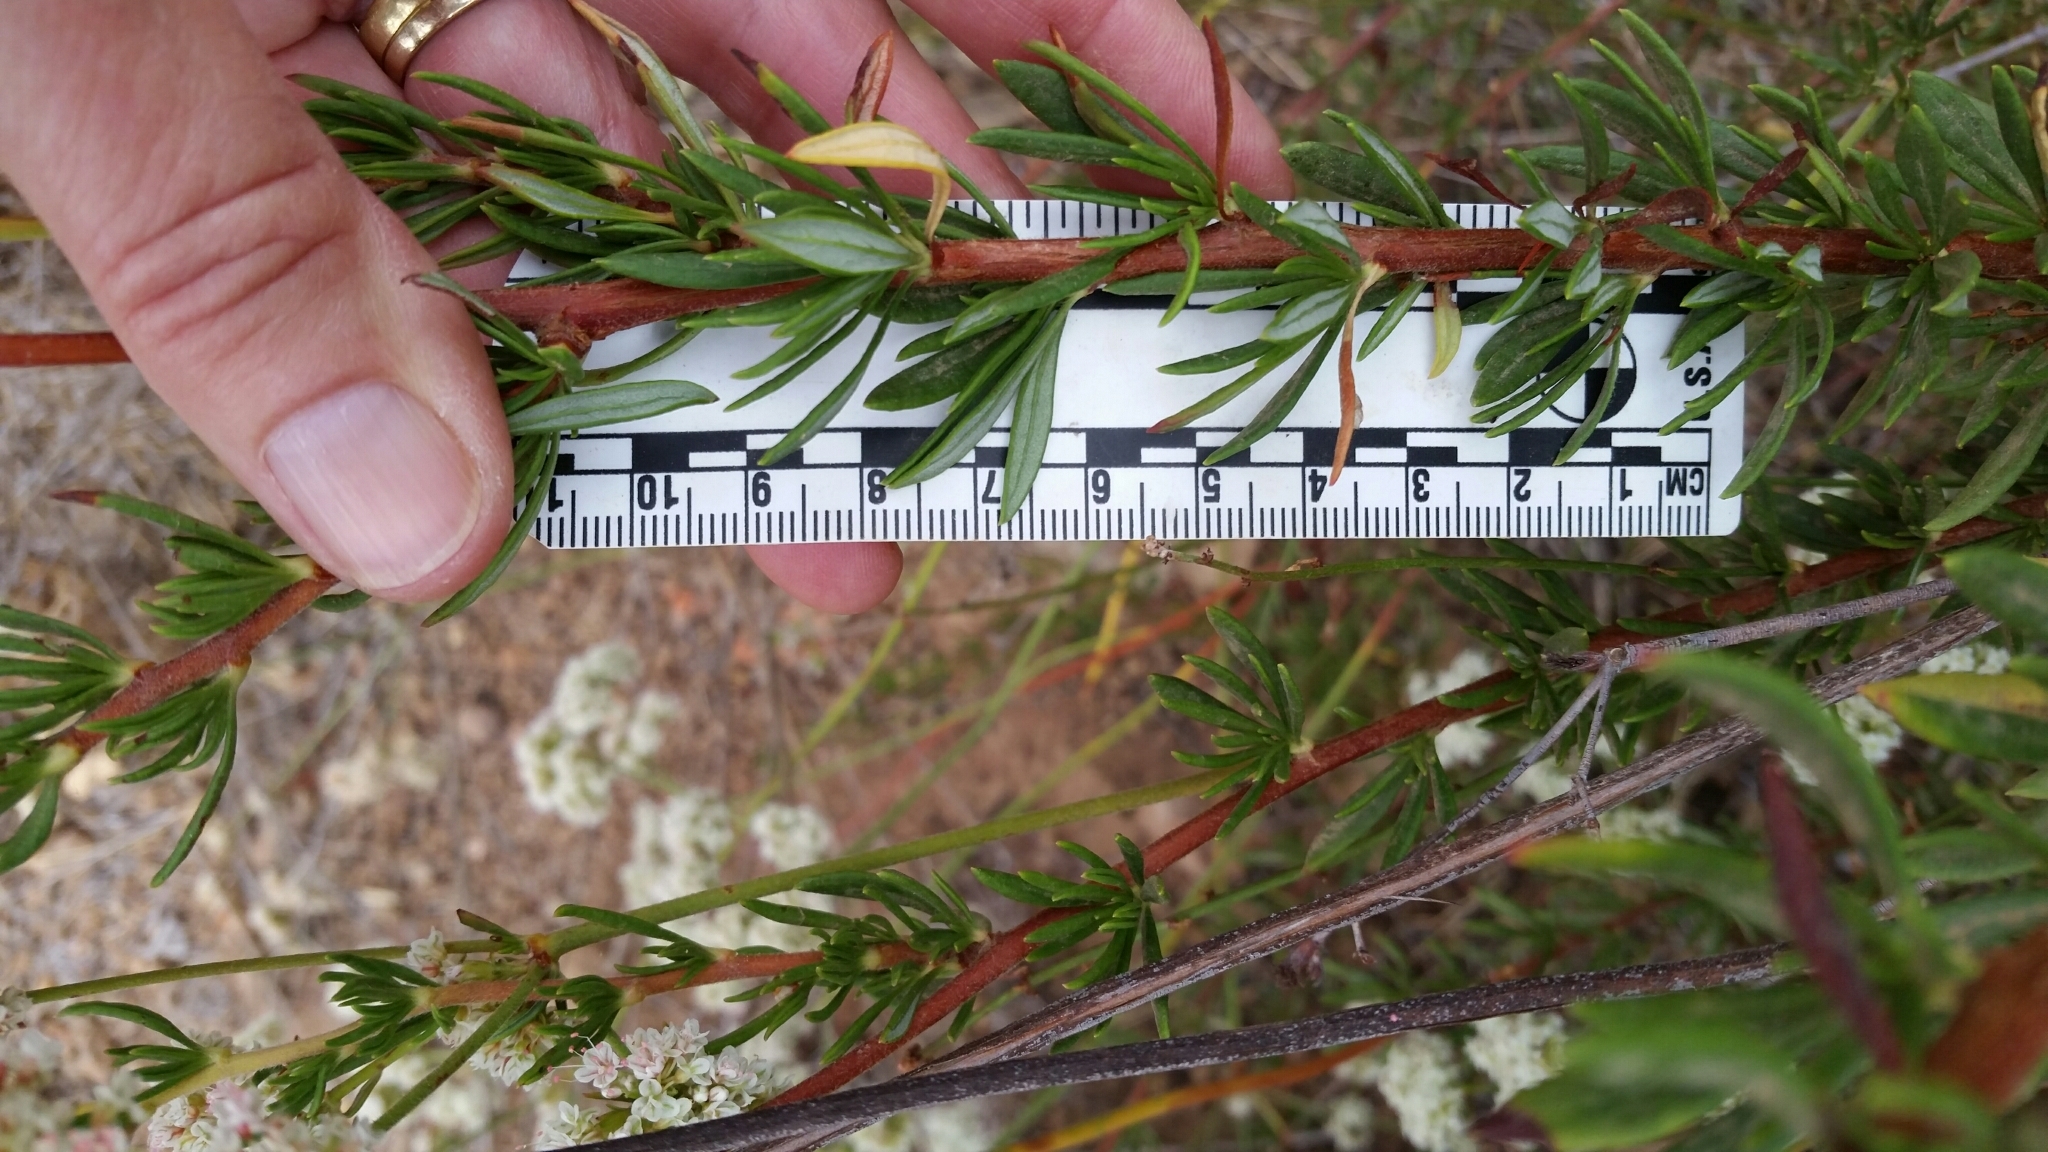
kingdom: Plantae
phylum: Tracheophyta
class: Magnoliopsida
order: Caryophyllales
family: Polygonaceae
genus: Eriogonum
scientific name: Eriogonum fasciculatum
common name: California wild buckwheat
